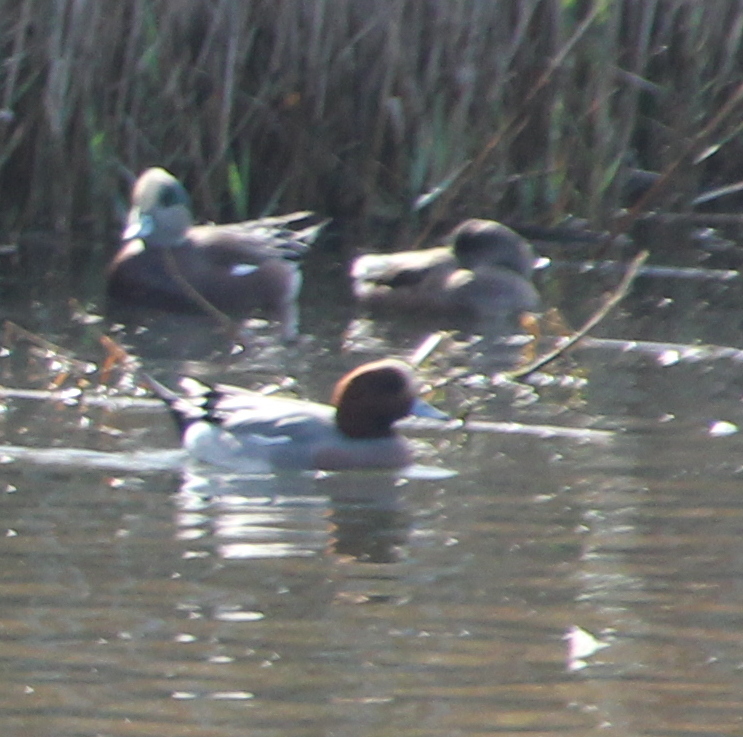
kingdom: Animalia
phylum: Chordata
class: Aves
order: Anseriformes
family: Anatidae
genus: Mareca
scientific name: Mareca penelope
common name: Eurasian wigeon
